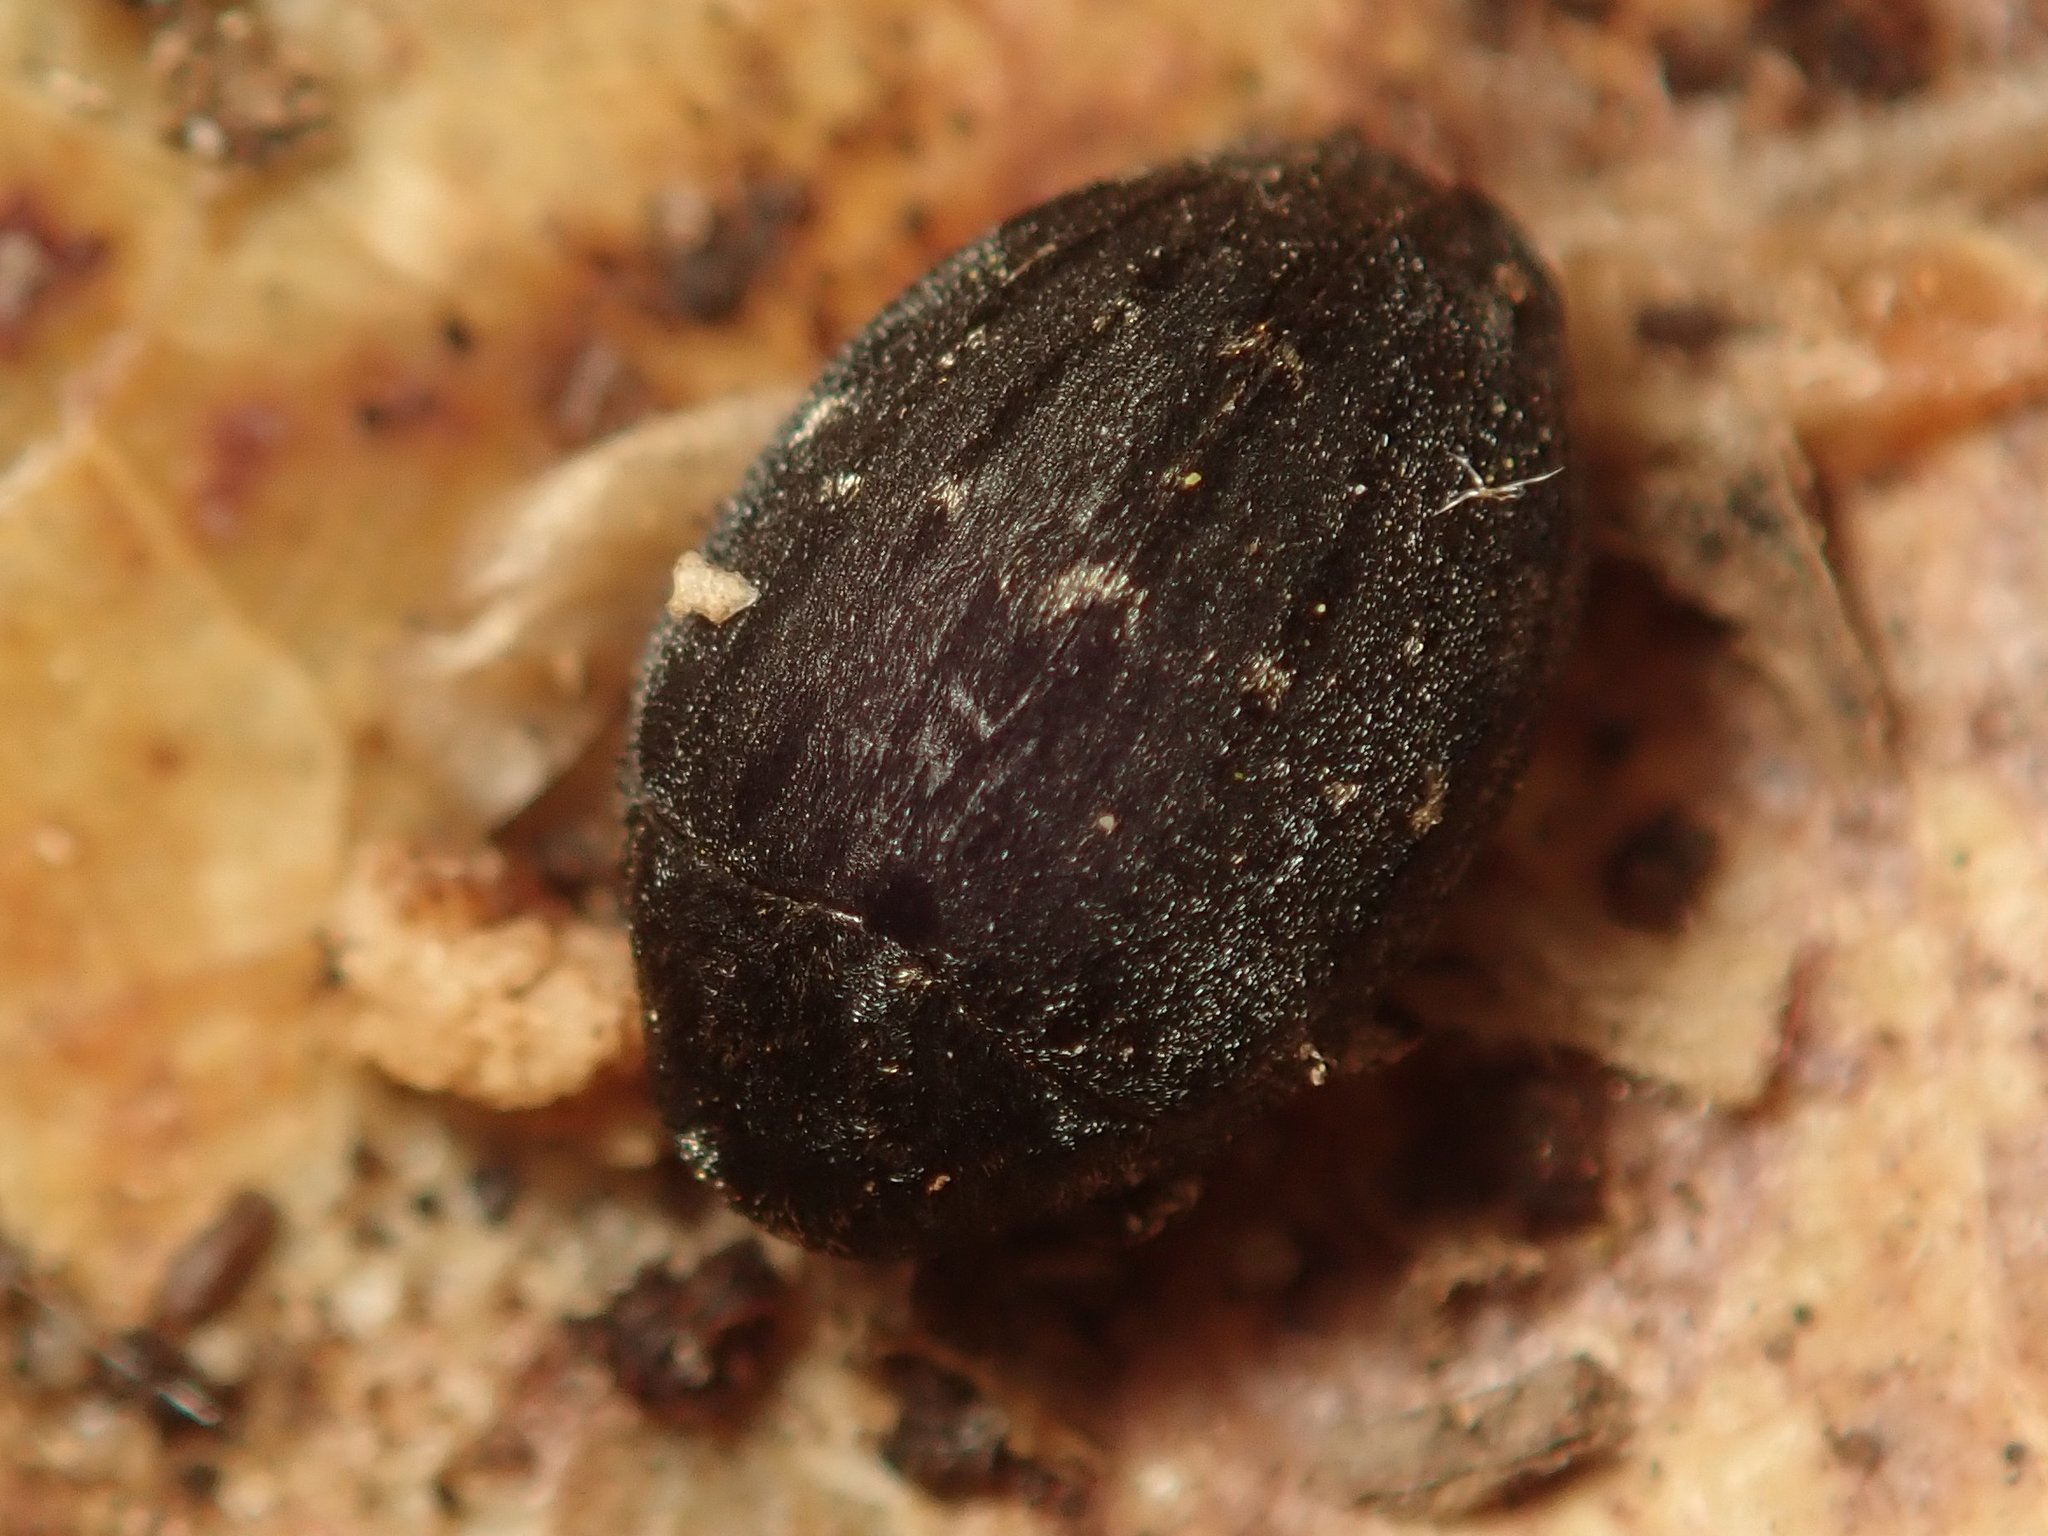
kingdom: Animalia
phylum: Arthropoda
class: Insecta
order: Coleoptera
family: Byrrhidae
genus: Byrrhus
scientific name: Byrrhus fasciatus
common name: Banded pill-beetle
